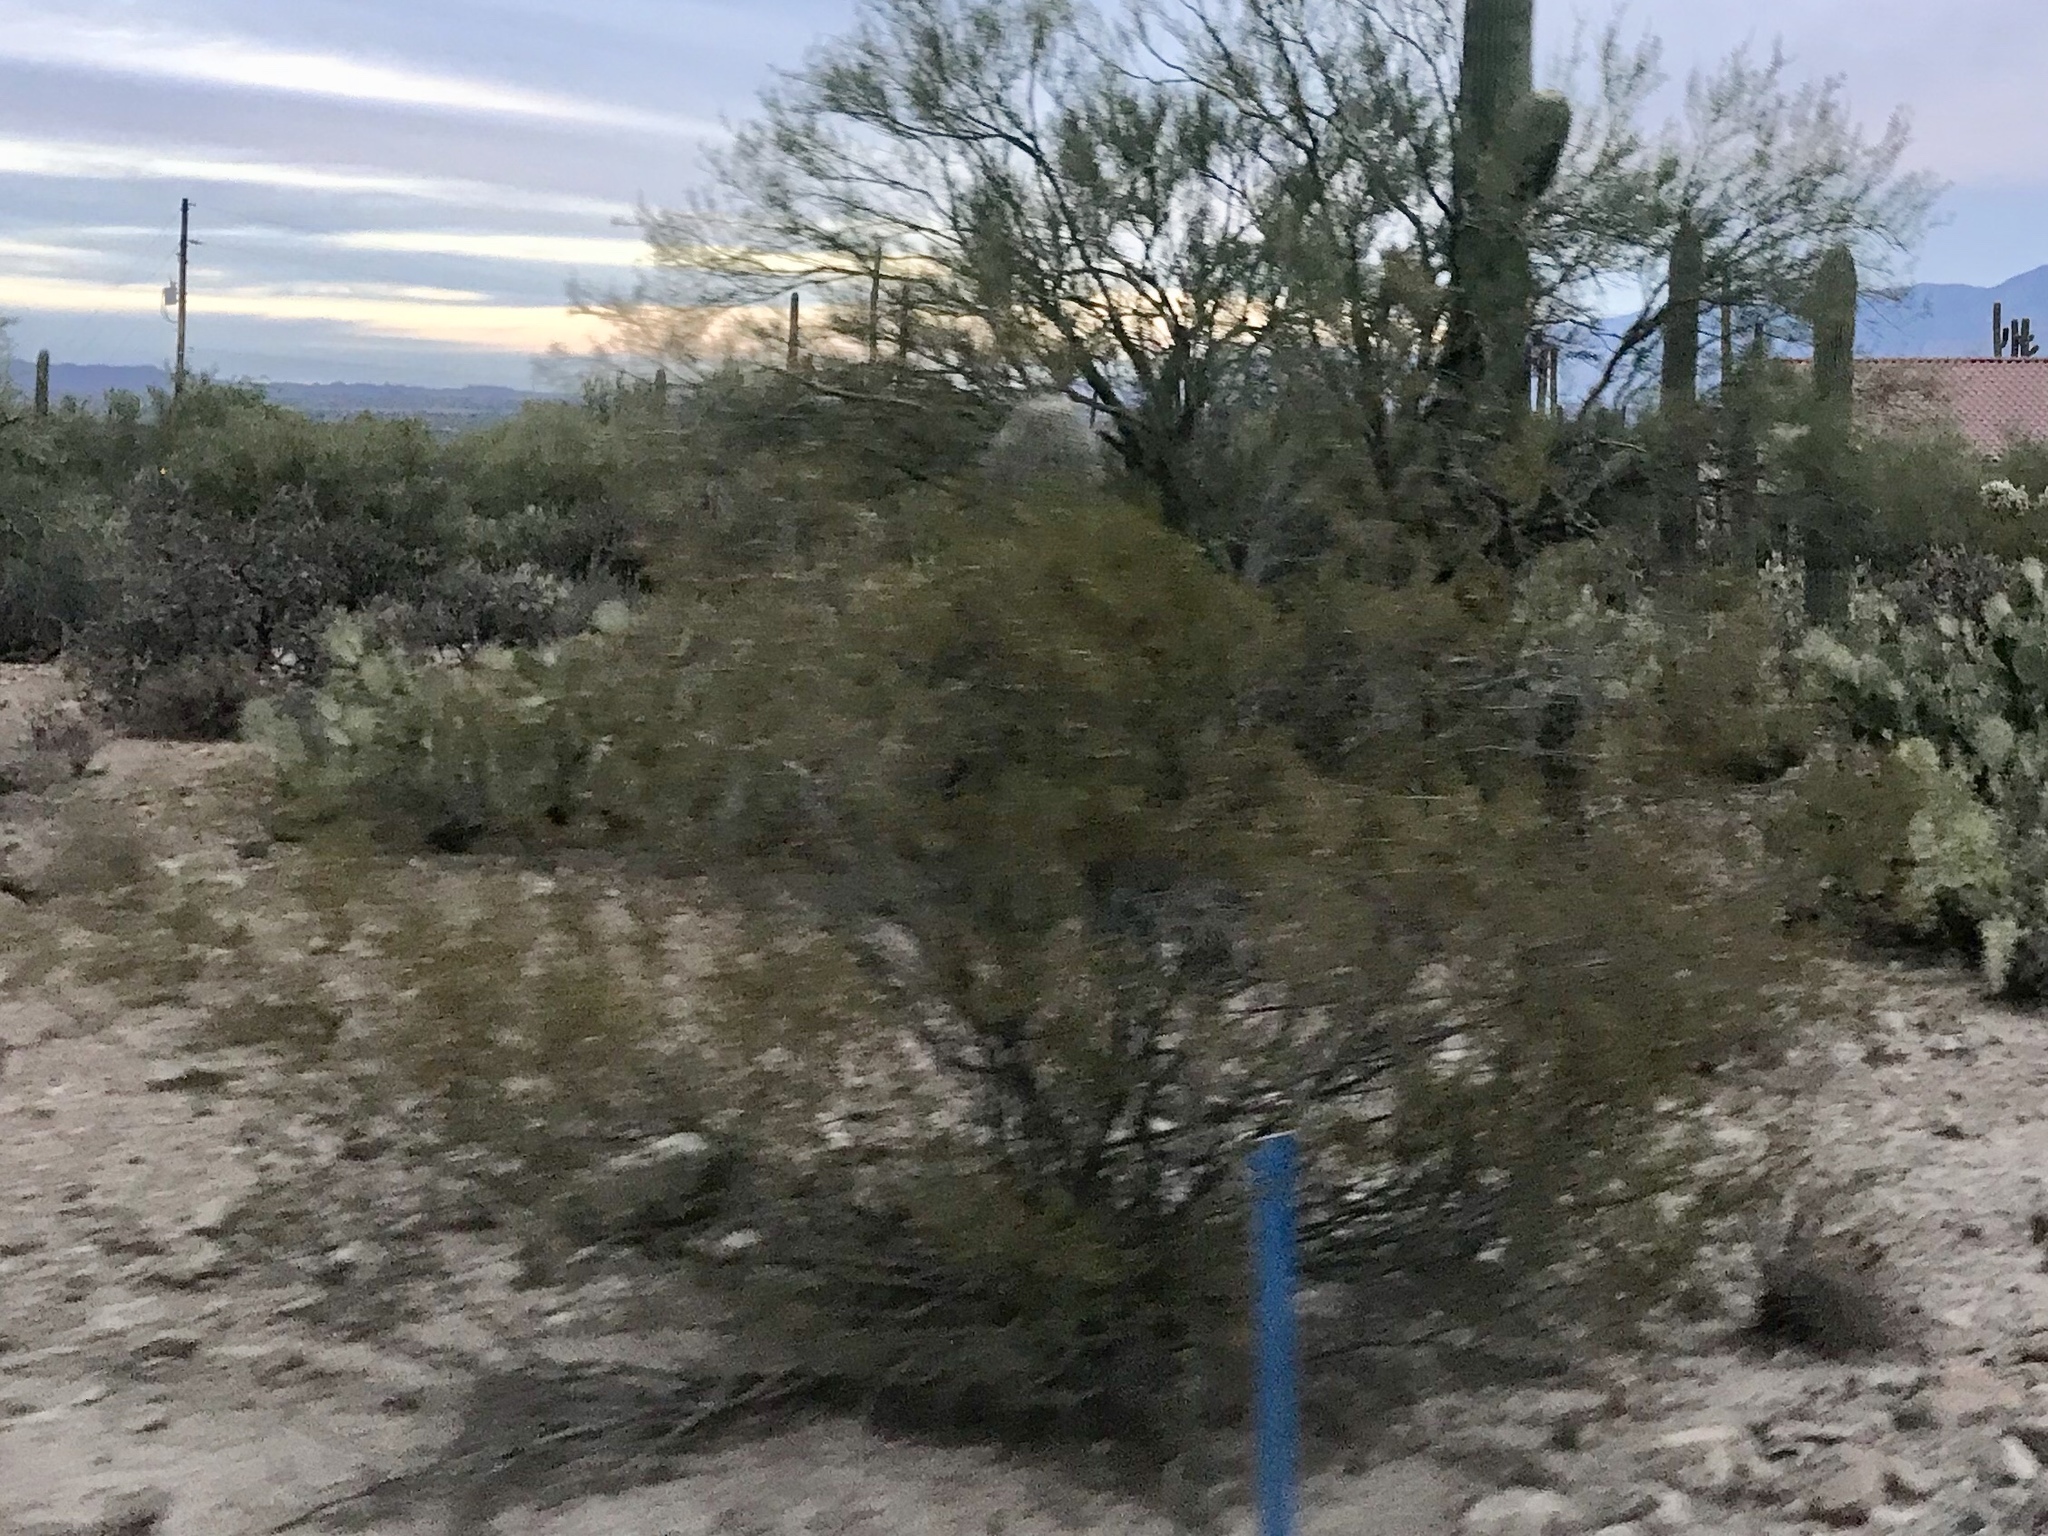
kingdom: Plantae
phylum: Tracheophyta
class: Magnoliopsida
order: Zygophyllales
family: Zygophyllaceae
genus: Larrea
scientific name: Larrea tridentata
